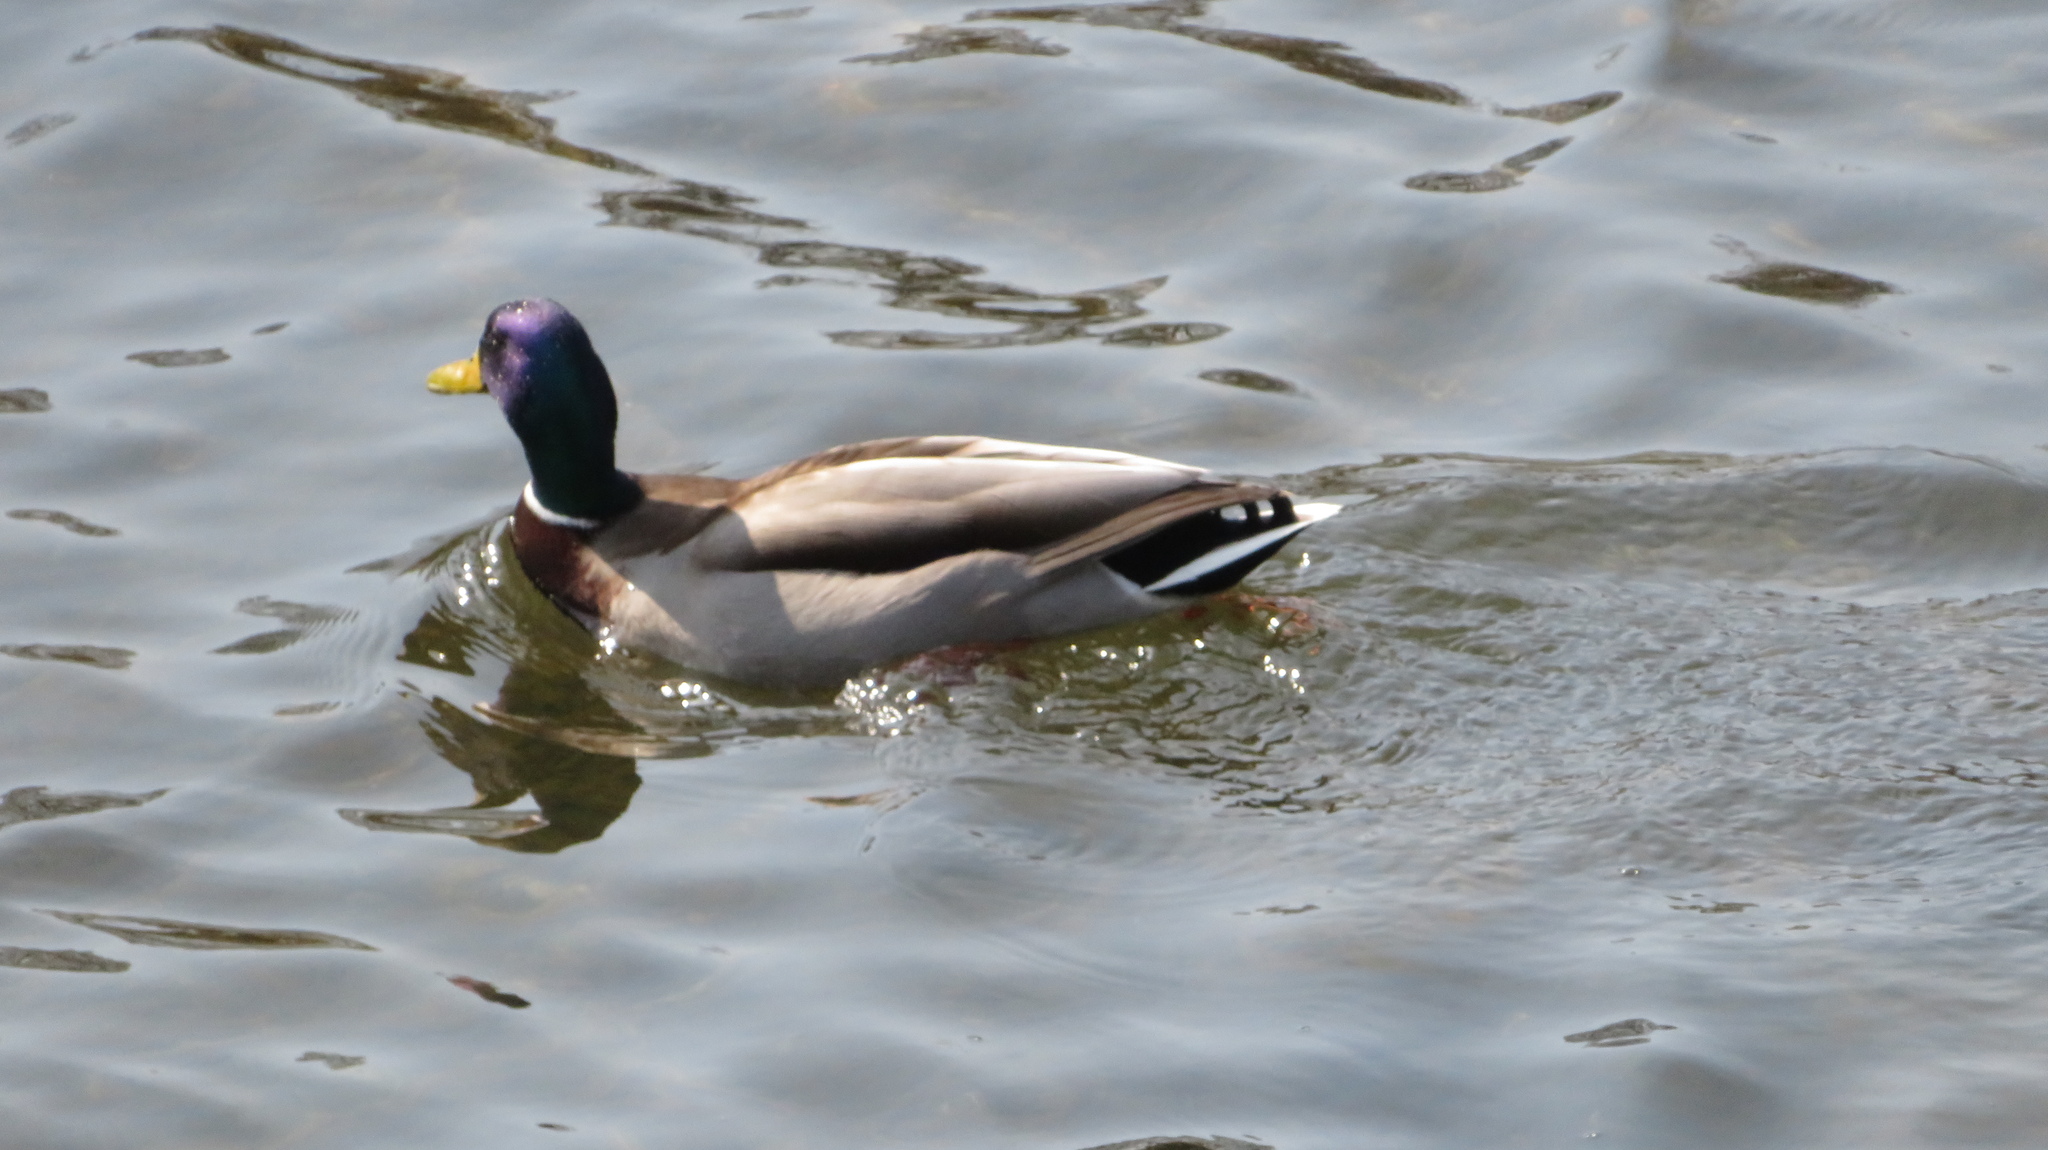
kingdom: Animalia
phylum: Chordata
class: Aves
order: Anseriformes
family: Anatidae
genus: Anas
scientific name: Anas platyrhynchos
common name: Mallard
